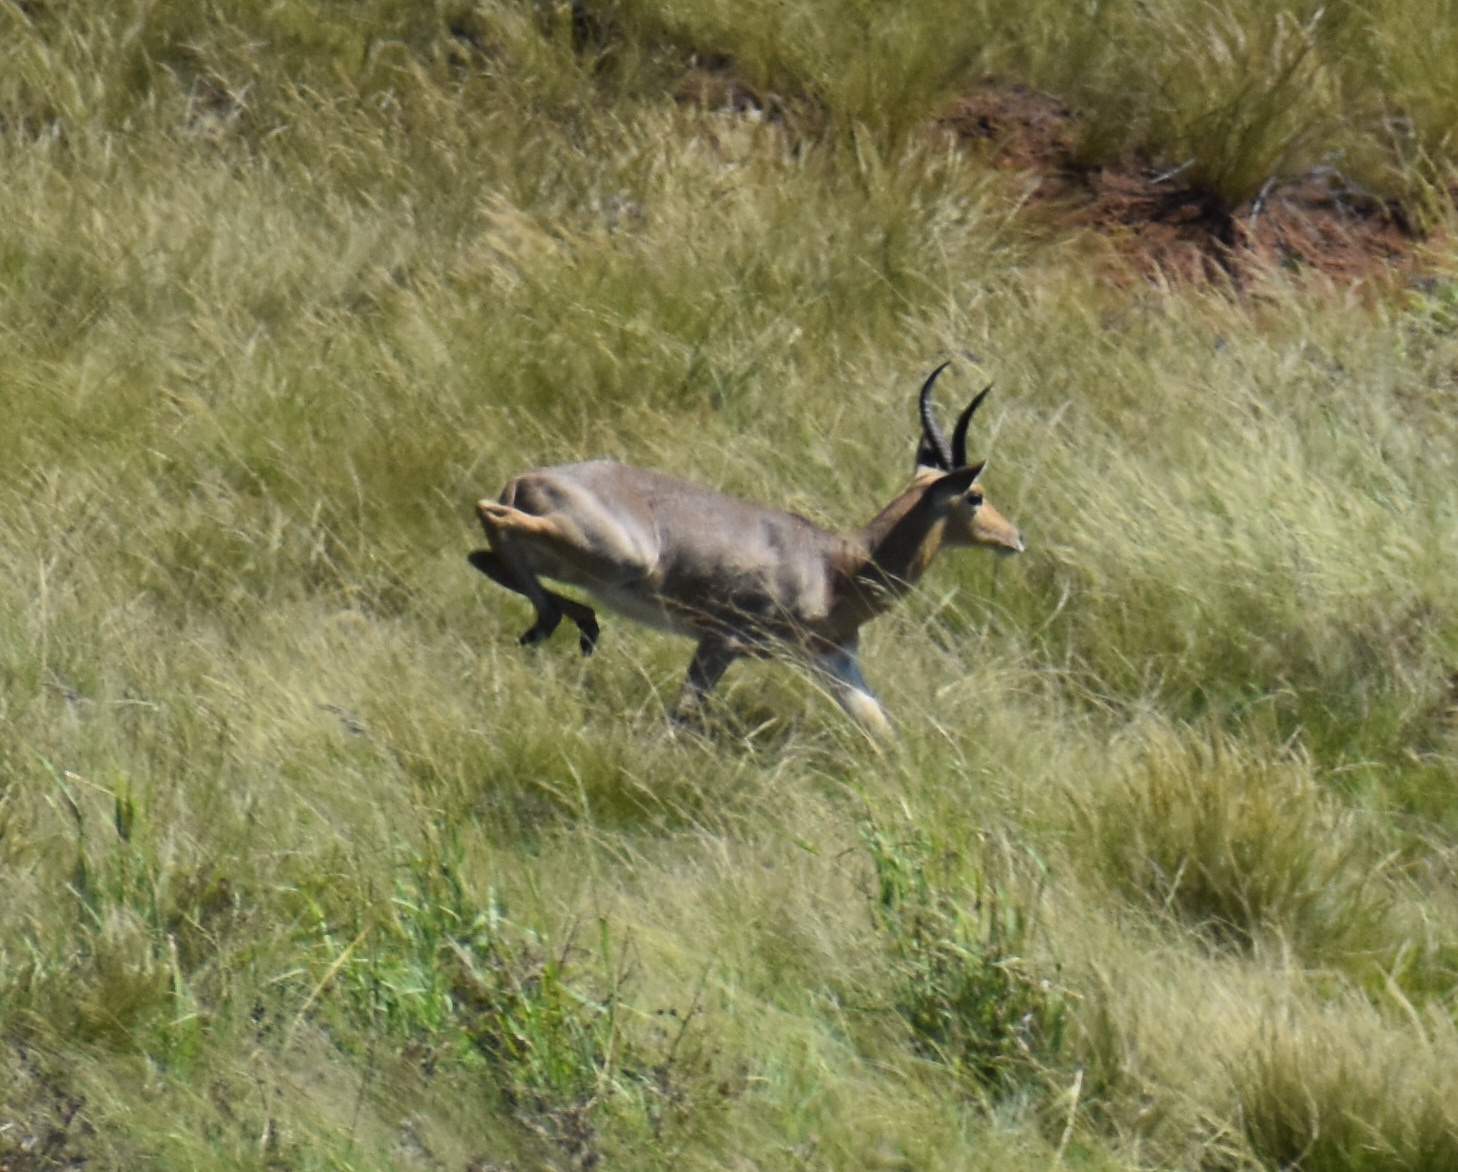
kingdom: Animalia
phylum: Chordata
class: Mammalia
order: Artiodactyla
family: Bovidae
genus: Redunca
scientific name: Redunca fulvorufula
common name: Mountain reedbuck
